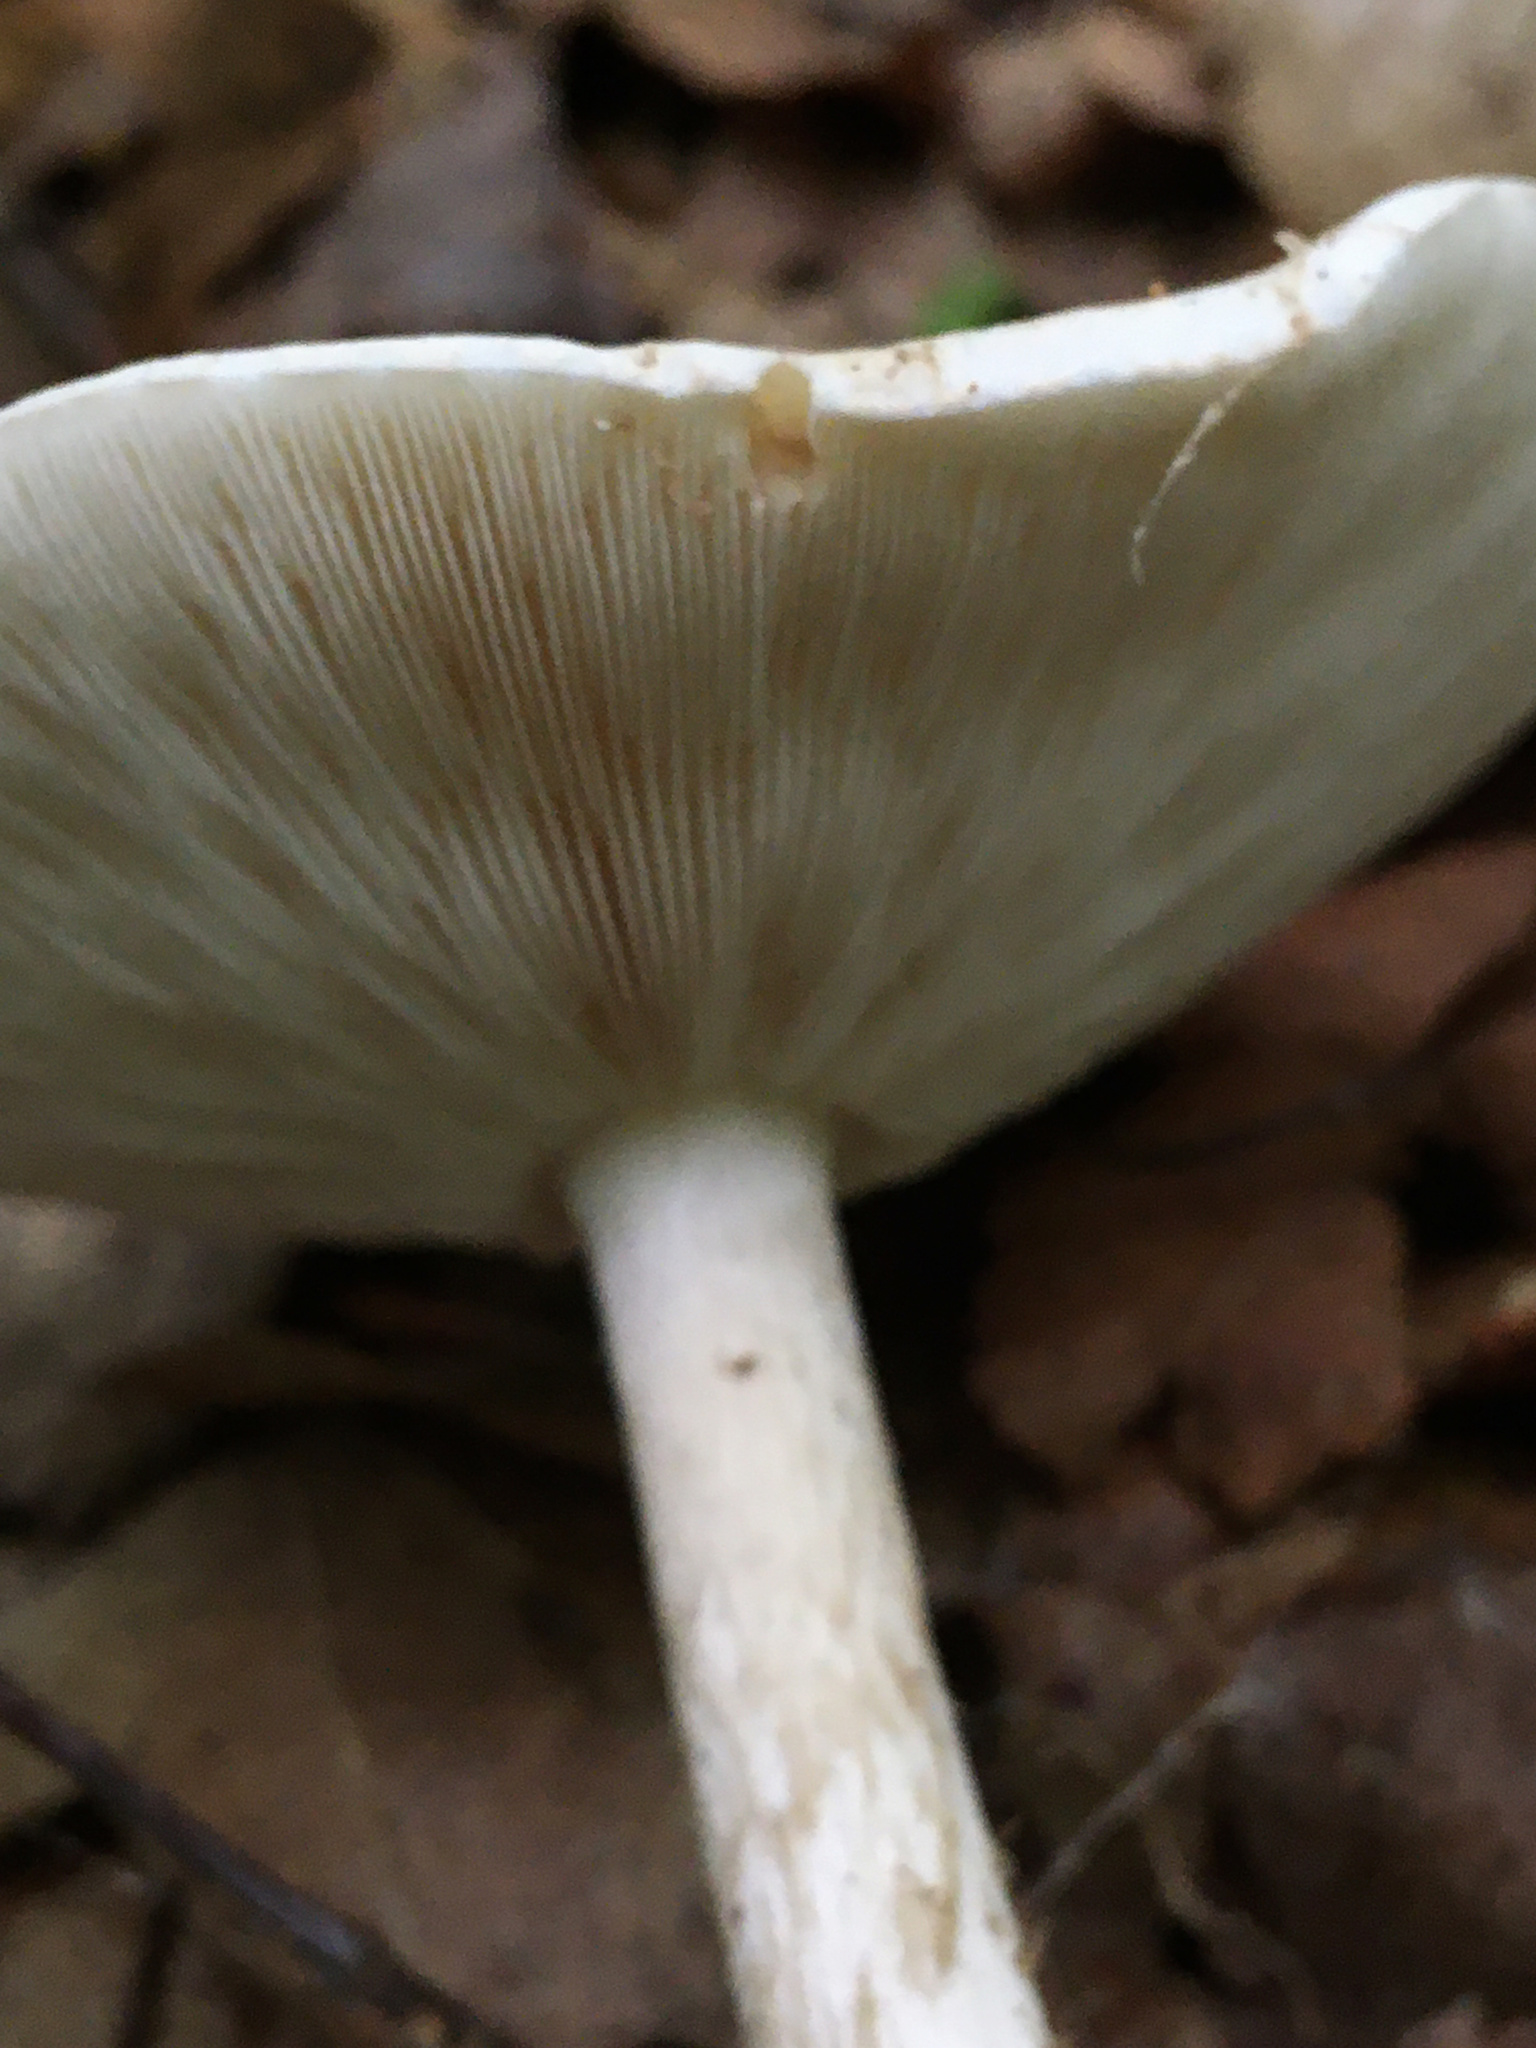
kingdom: Fungi
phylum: Basidiomycota
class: Agaricomycetes
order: Agaricales
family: Tricholomataceae
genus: Collybia
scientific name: Collybia alboflavida
